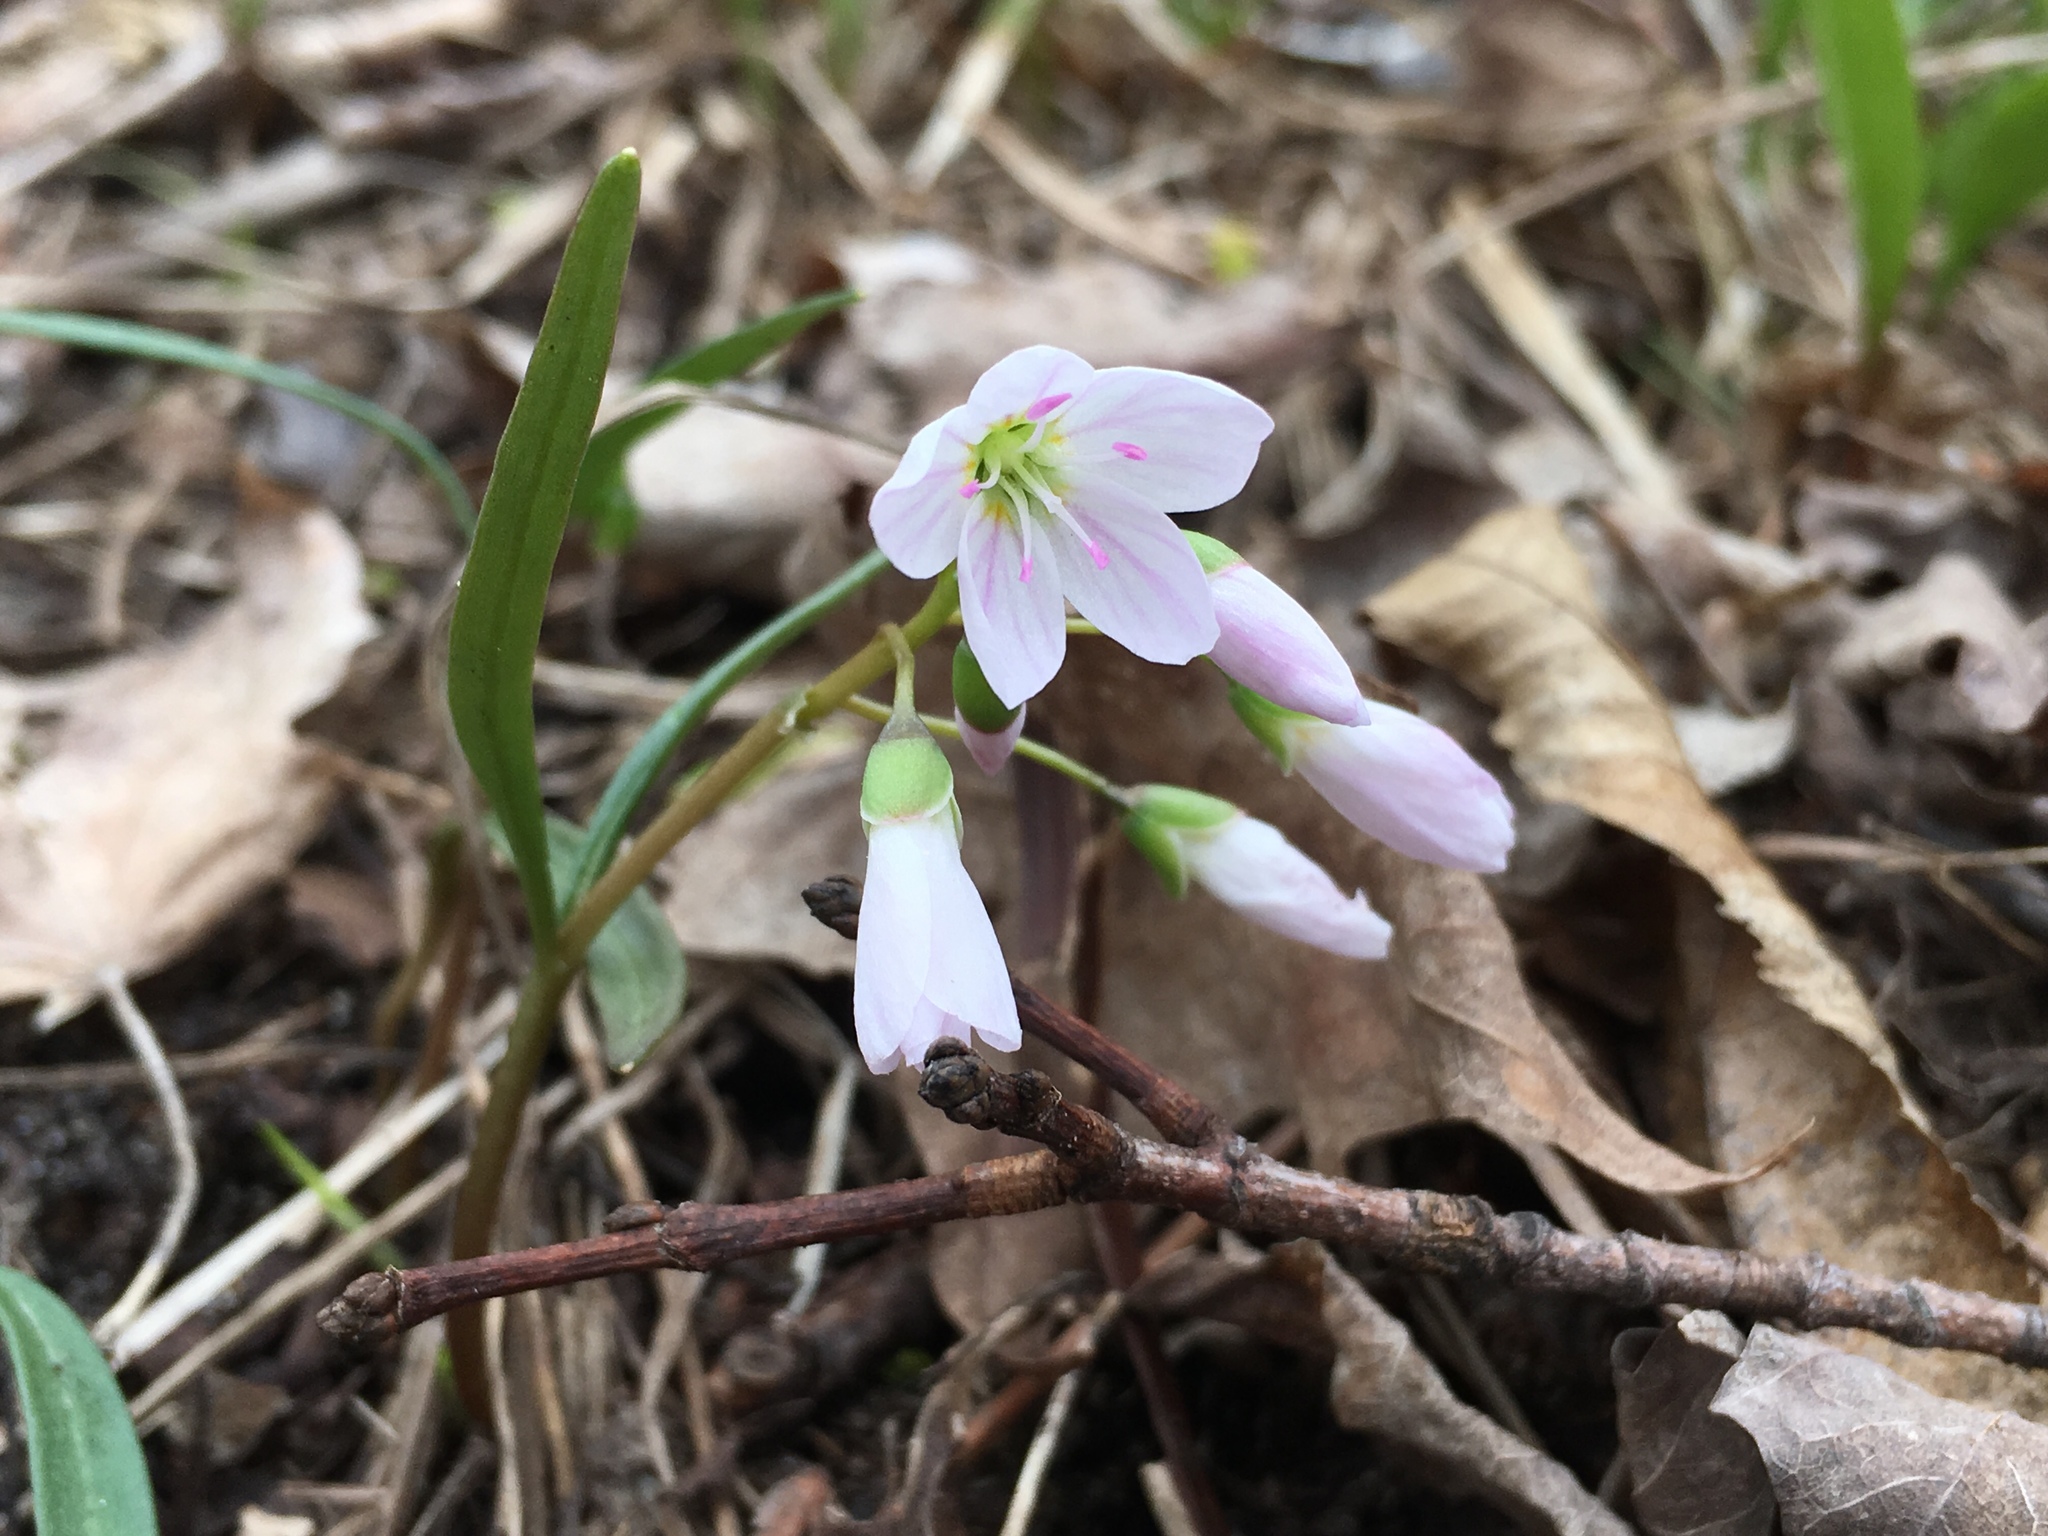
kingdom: Plantae
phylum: Tracheophyta
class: Magnoliopsida
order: Caryophyllales
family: Montiaceae
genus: Claytonia
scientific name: Claytonia virginica
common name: Virginia springbeauty
